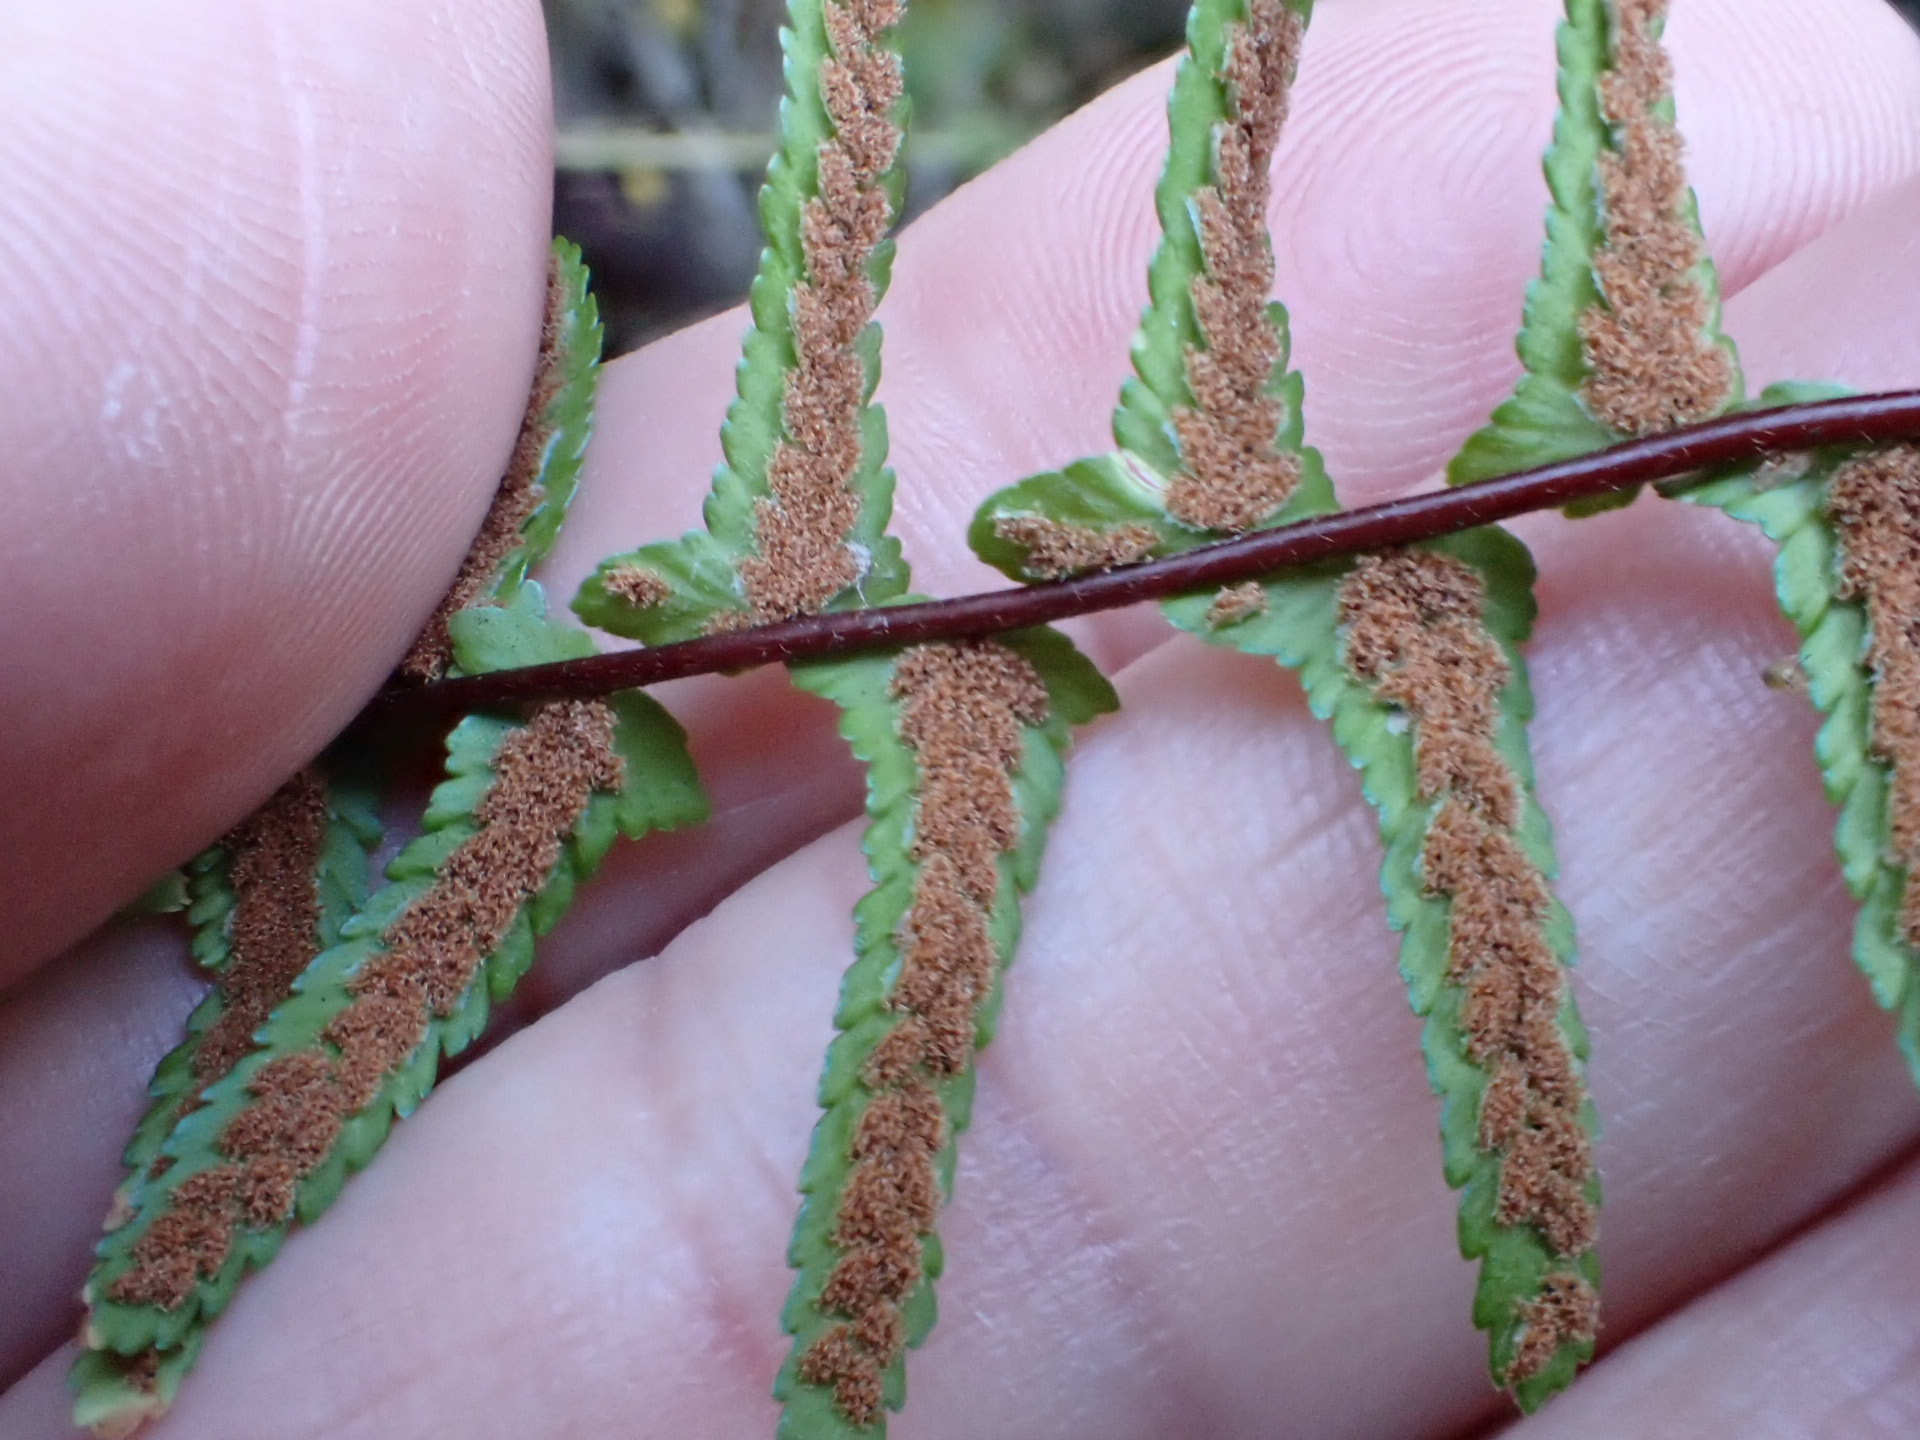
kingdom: Plantae
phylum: Tracheophyta
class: Polypodiopsida
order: Polypodiales
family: Aspleniaceae
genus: Asplenium
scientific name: Asplenium platyneuron
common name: Ebony spleenwort
